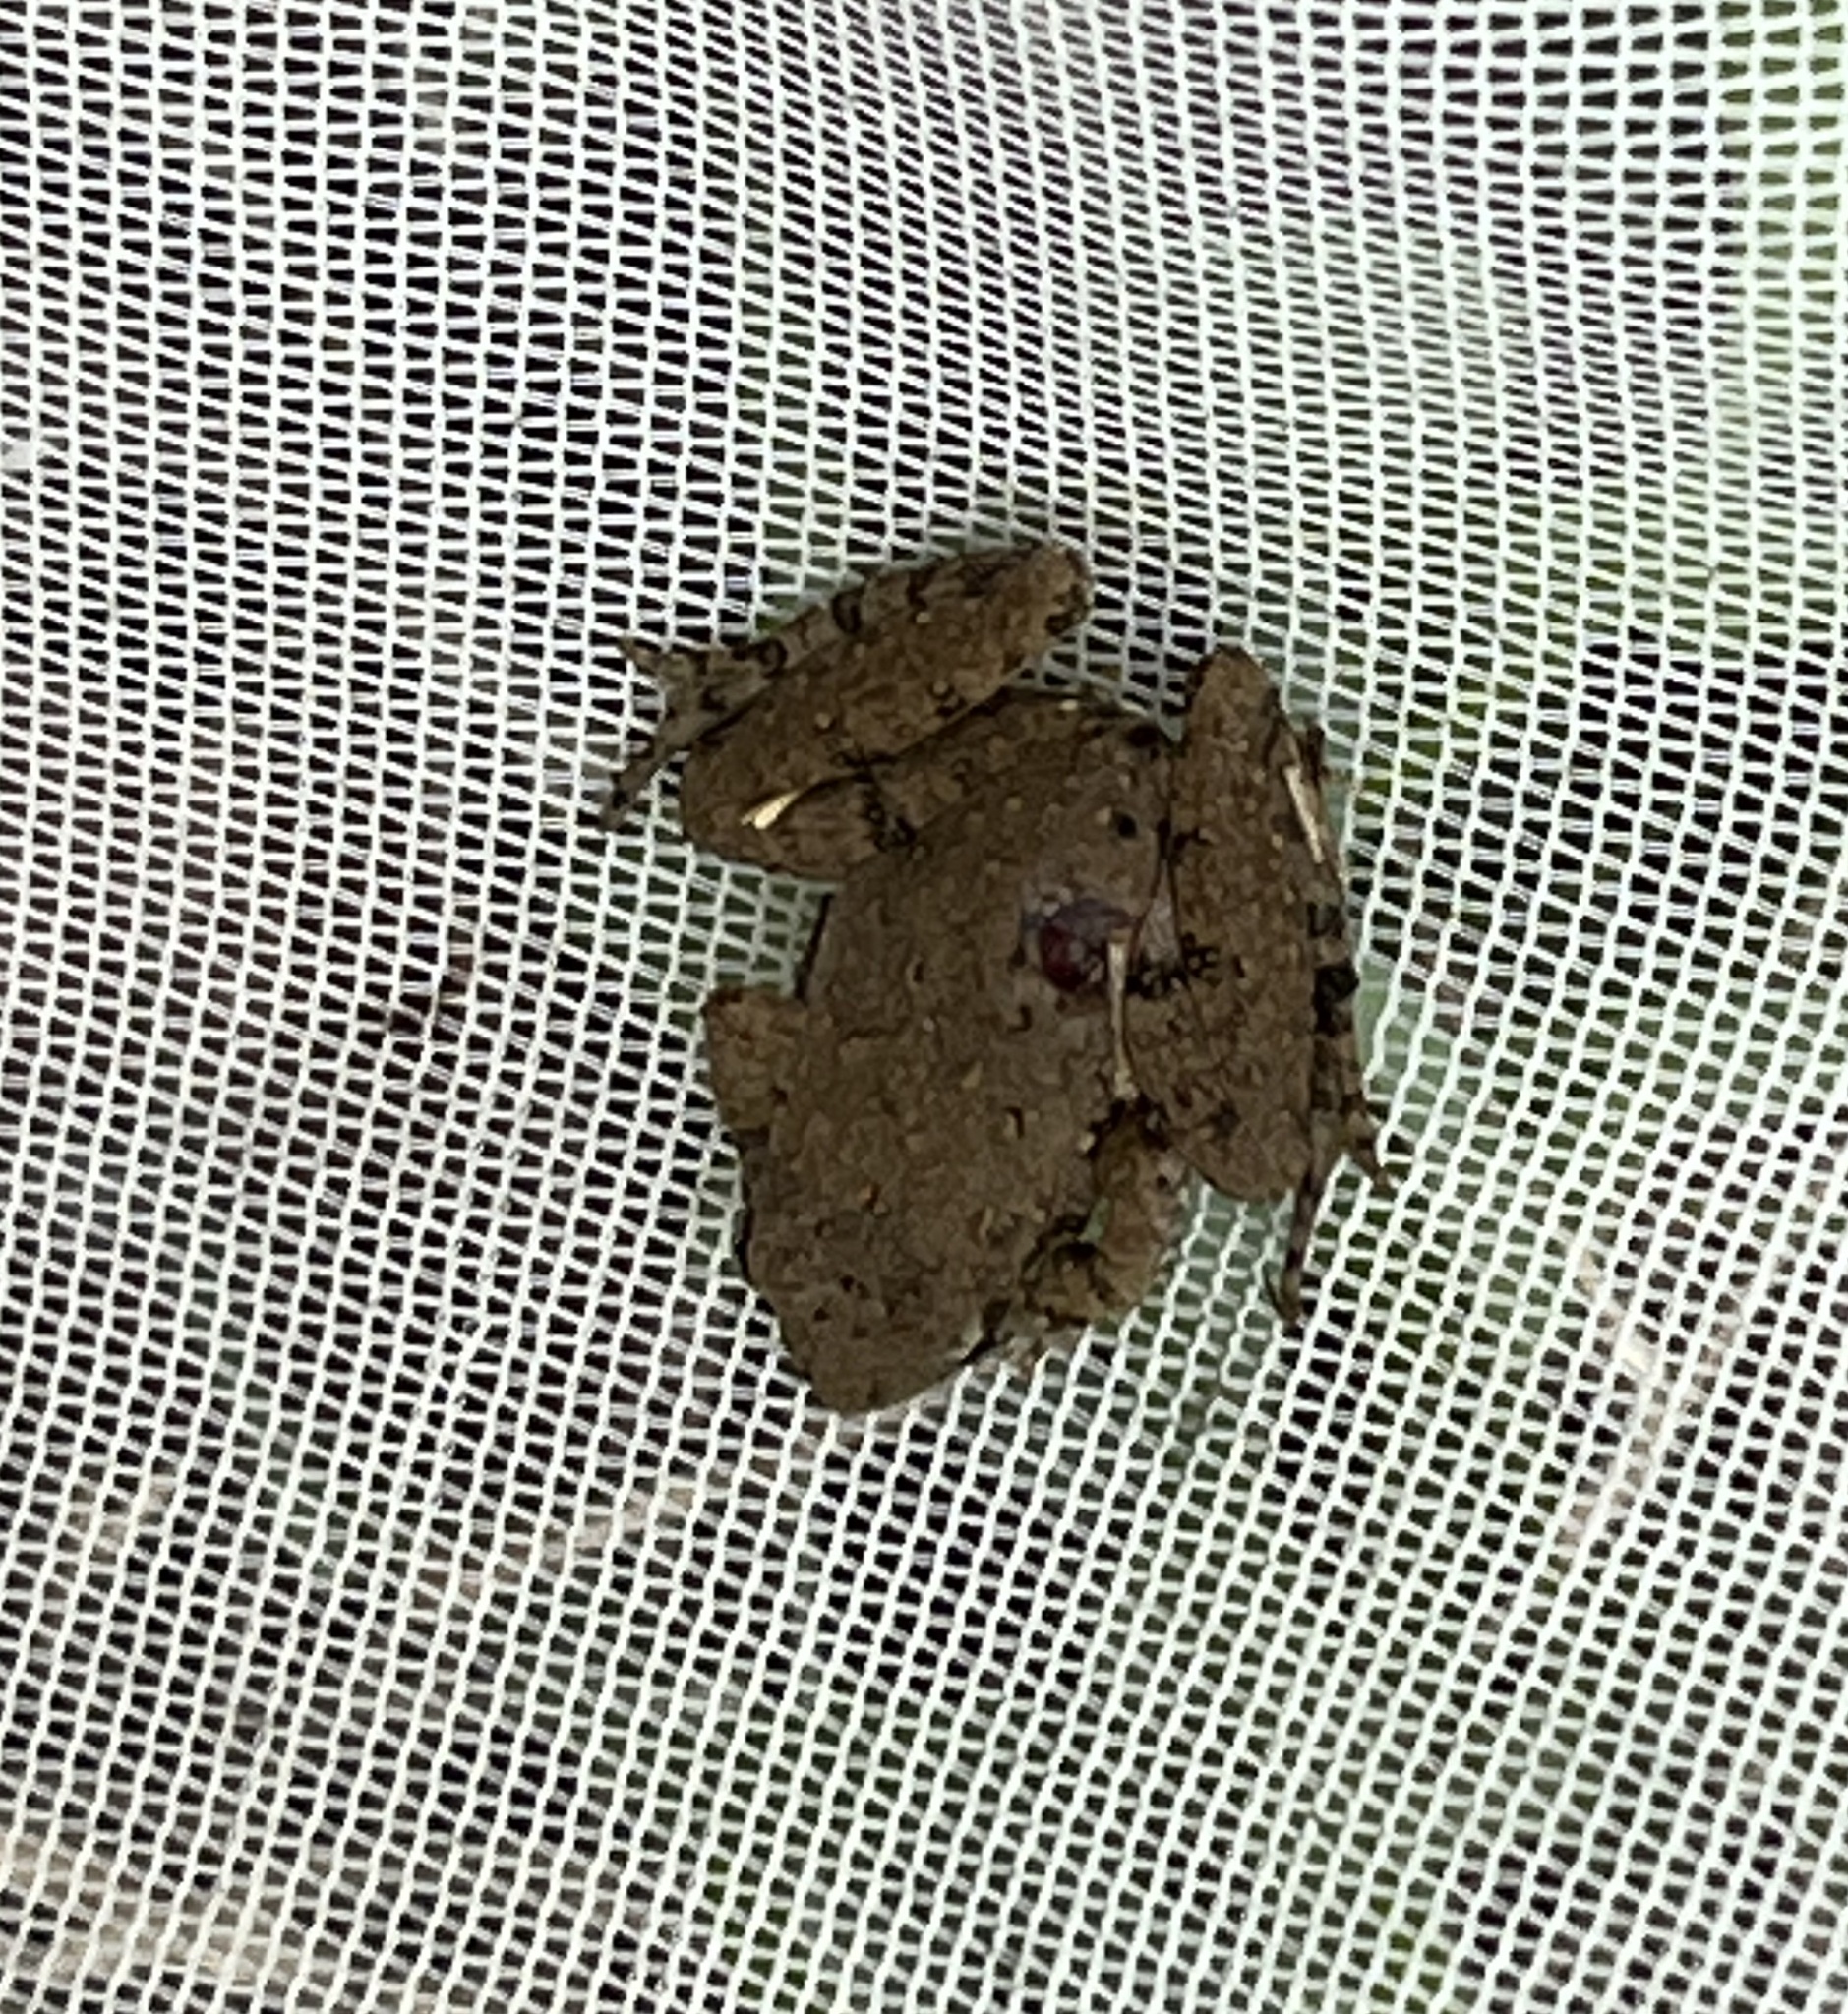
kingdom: Animalia
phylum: Chordata
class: Amphibia
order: Anura
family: Hylidae
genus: Acris
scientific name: Acris blanchardi
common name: Blanchard's cricket frog
